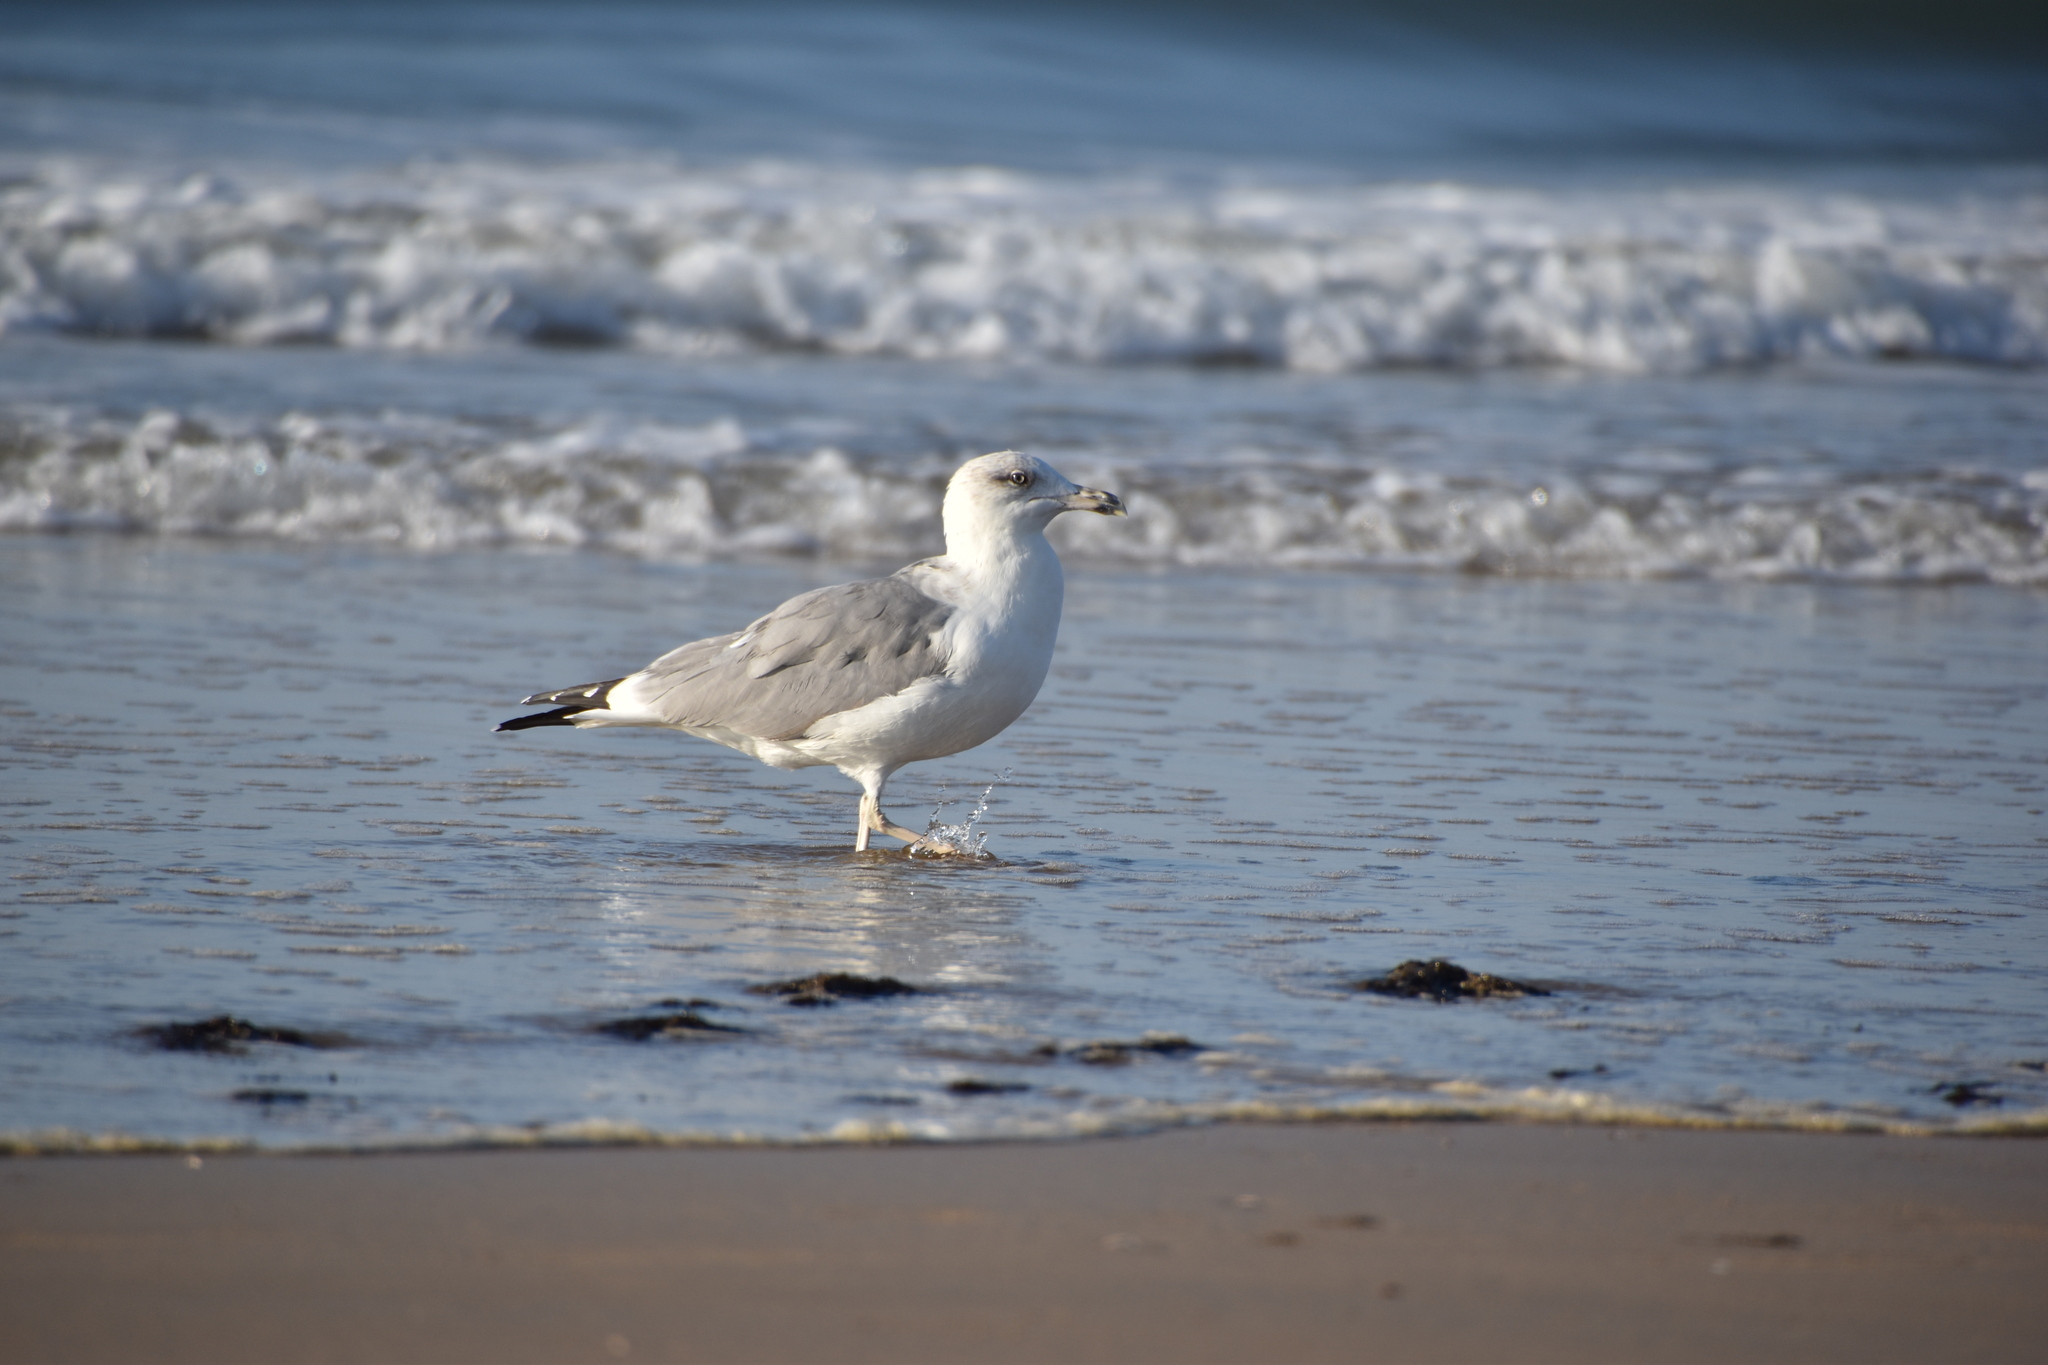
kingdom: Animalia
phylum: Chordata
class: Aves
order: Charadriiformes
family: Laridae
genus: Larus
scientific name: Larus michahellis
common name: Yellow-legged gull
